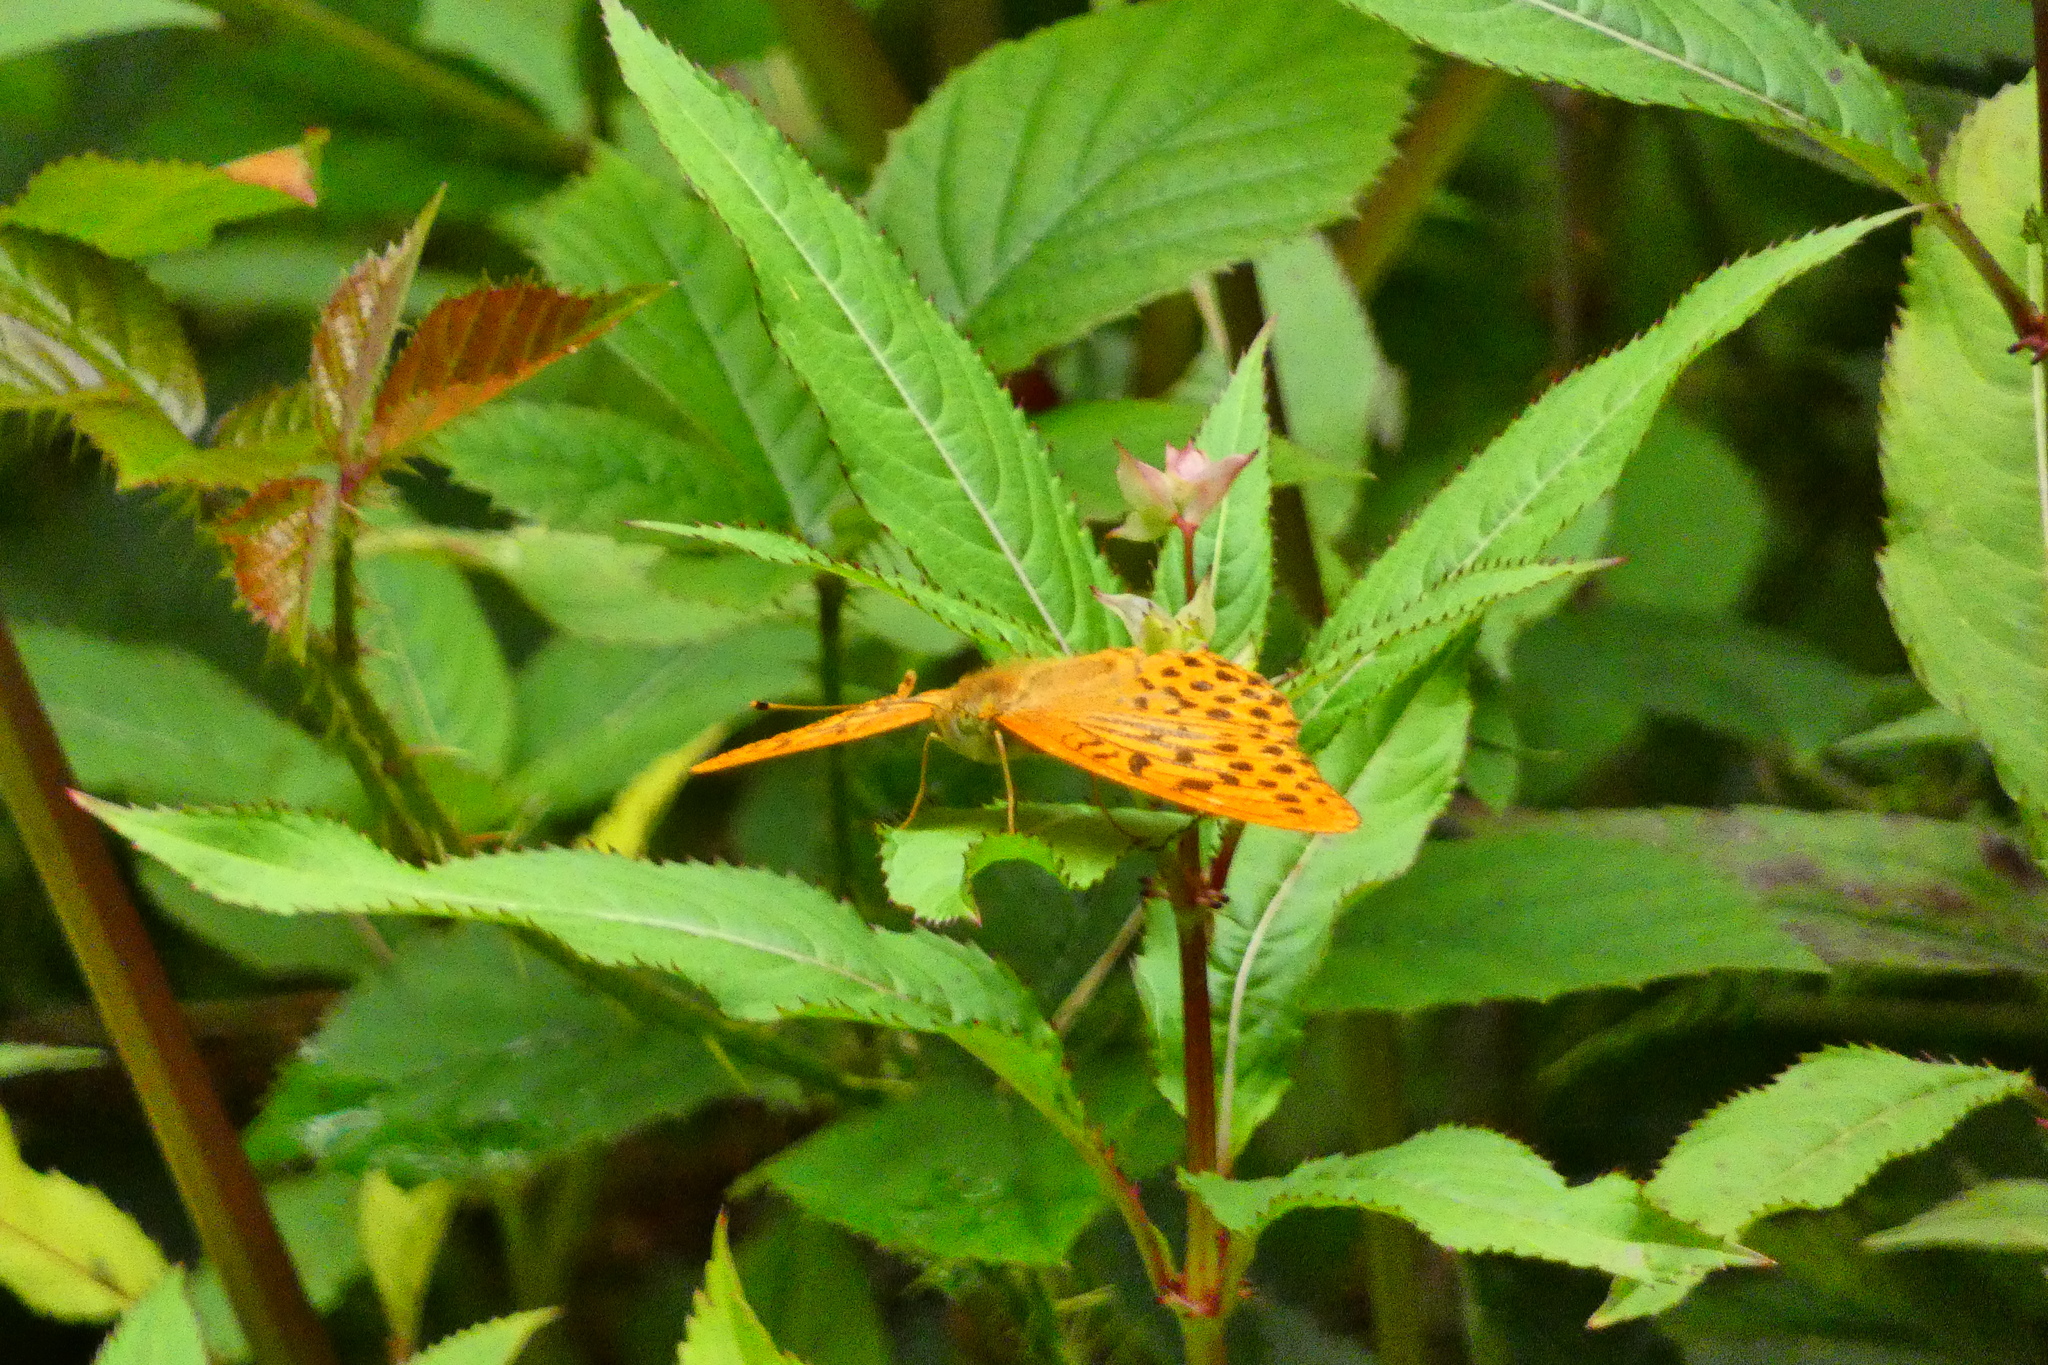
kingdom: Animalia
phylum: Arthropoda
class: Insecta
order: Lepidoptera
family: Nymphalidae
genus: Argynnis
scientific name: Argynnis paphia
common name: Silver-washed fritillary
